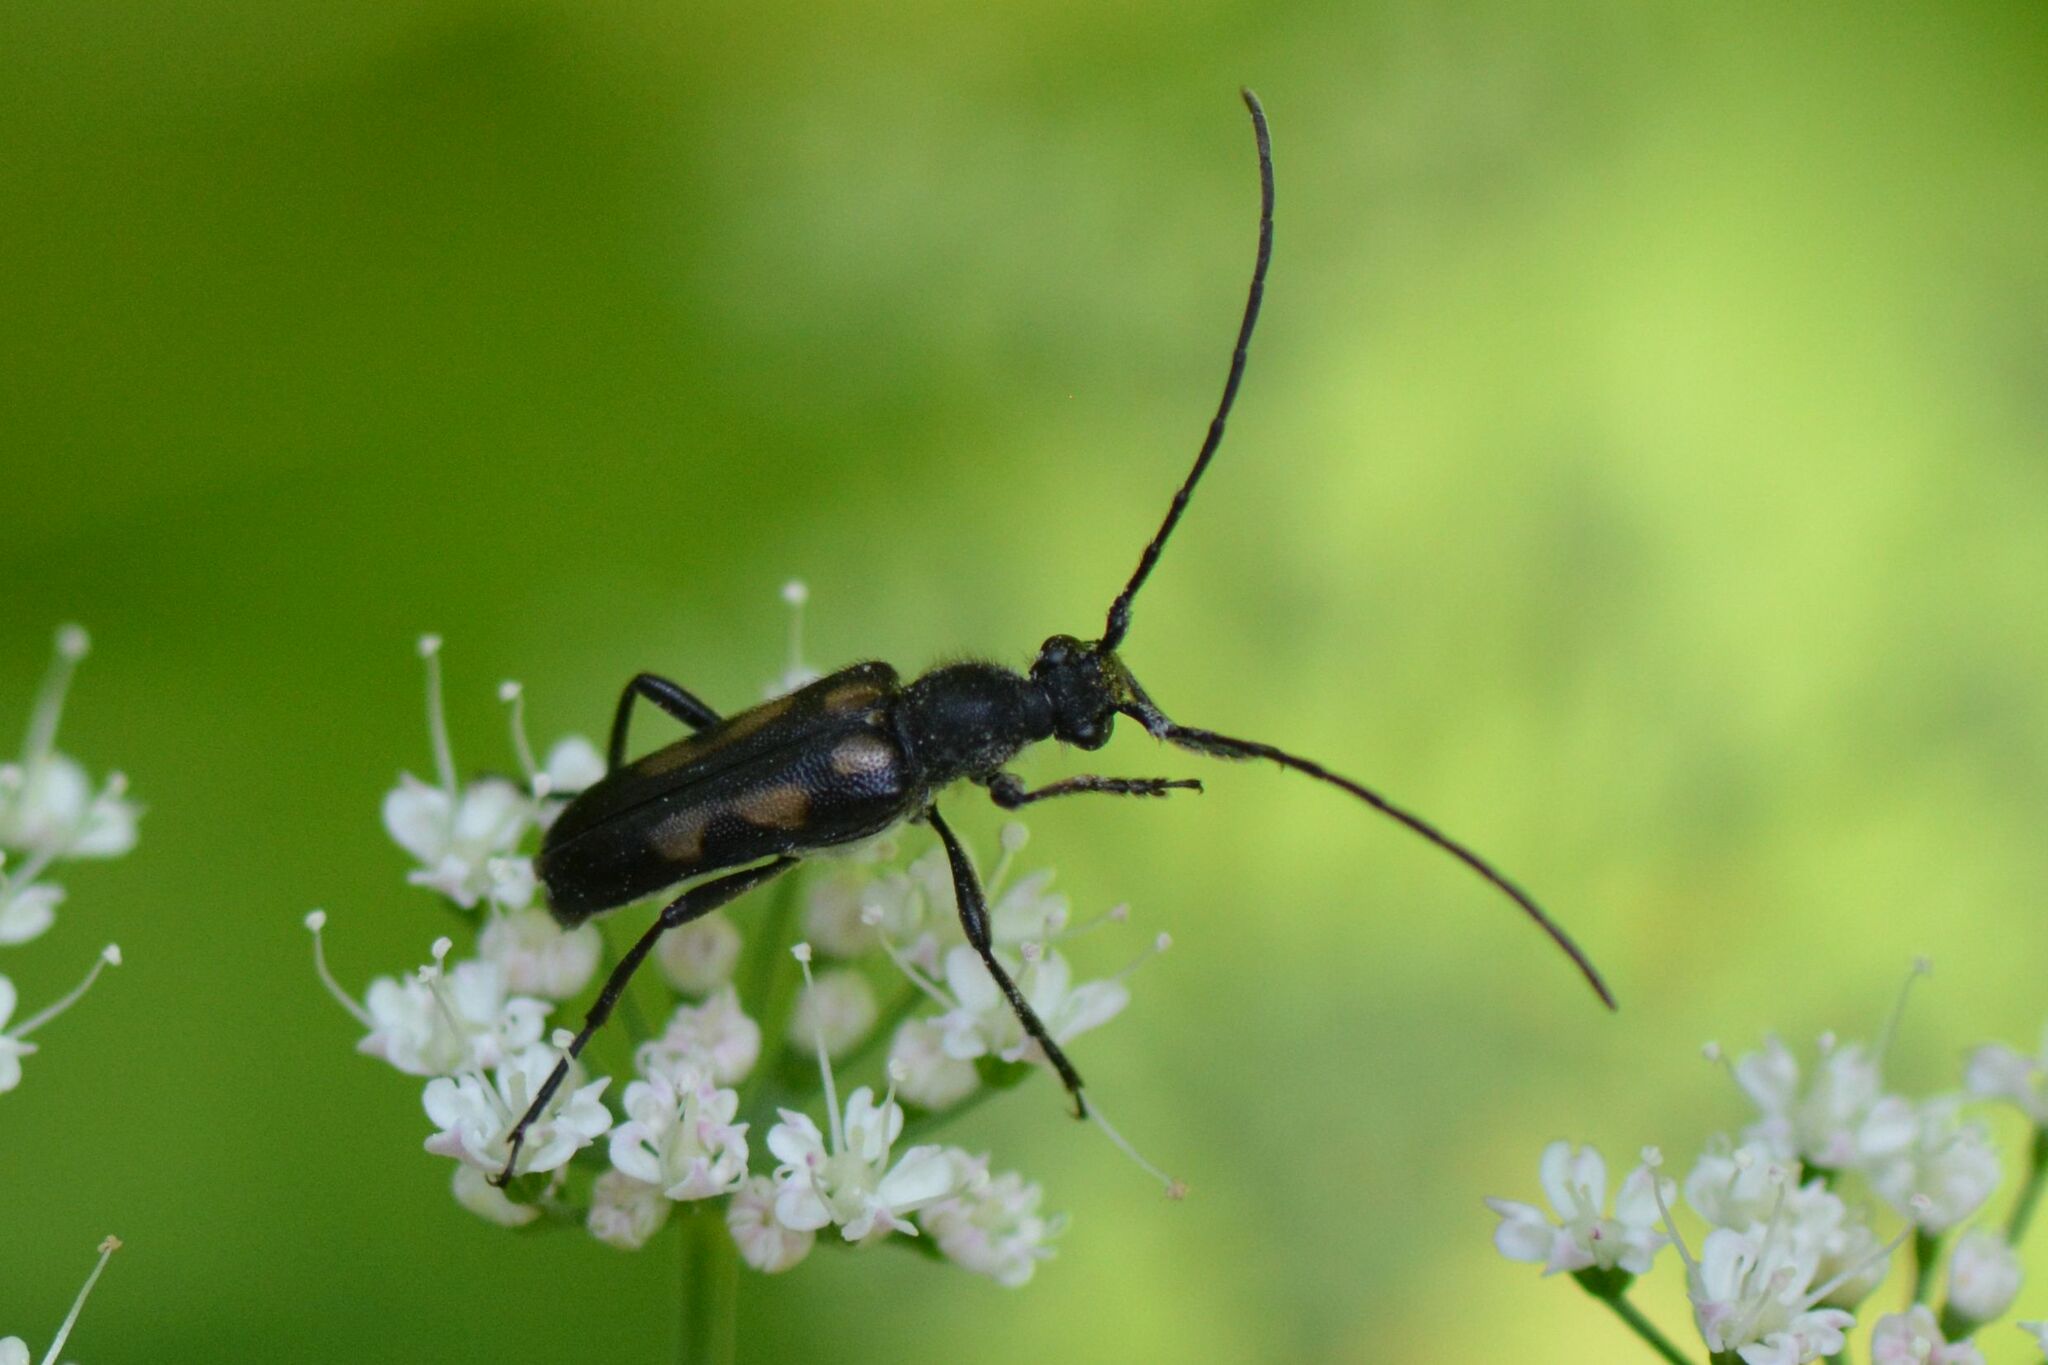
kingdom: Animalia
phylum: Arthropoda
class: Insecta
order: Coleoptera
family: Cerambycidae
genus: Anoplodera
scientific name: Anoplodera sexguttata
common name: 6 spotted longhorn
